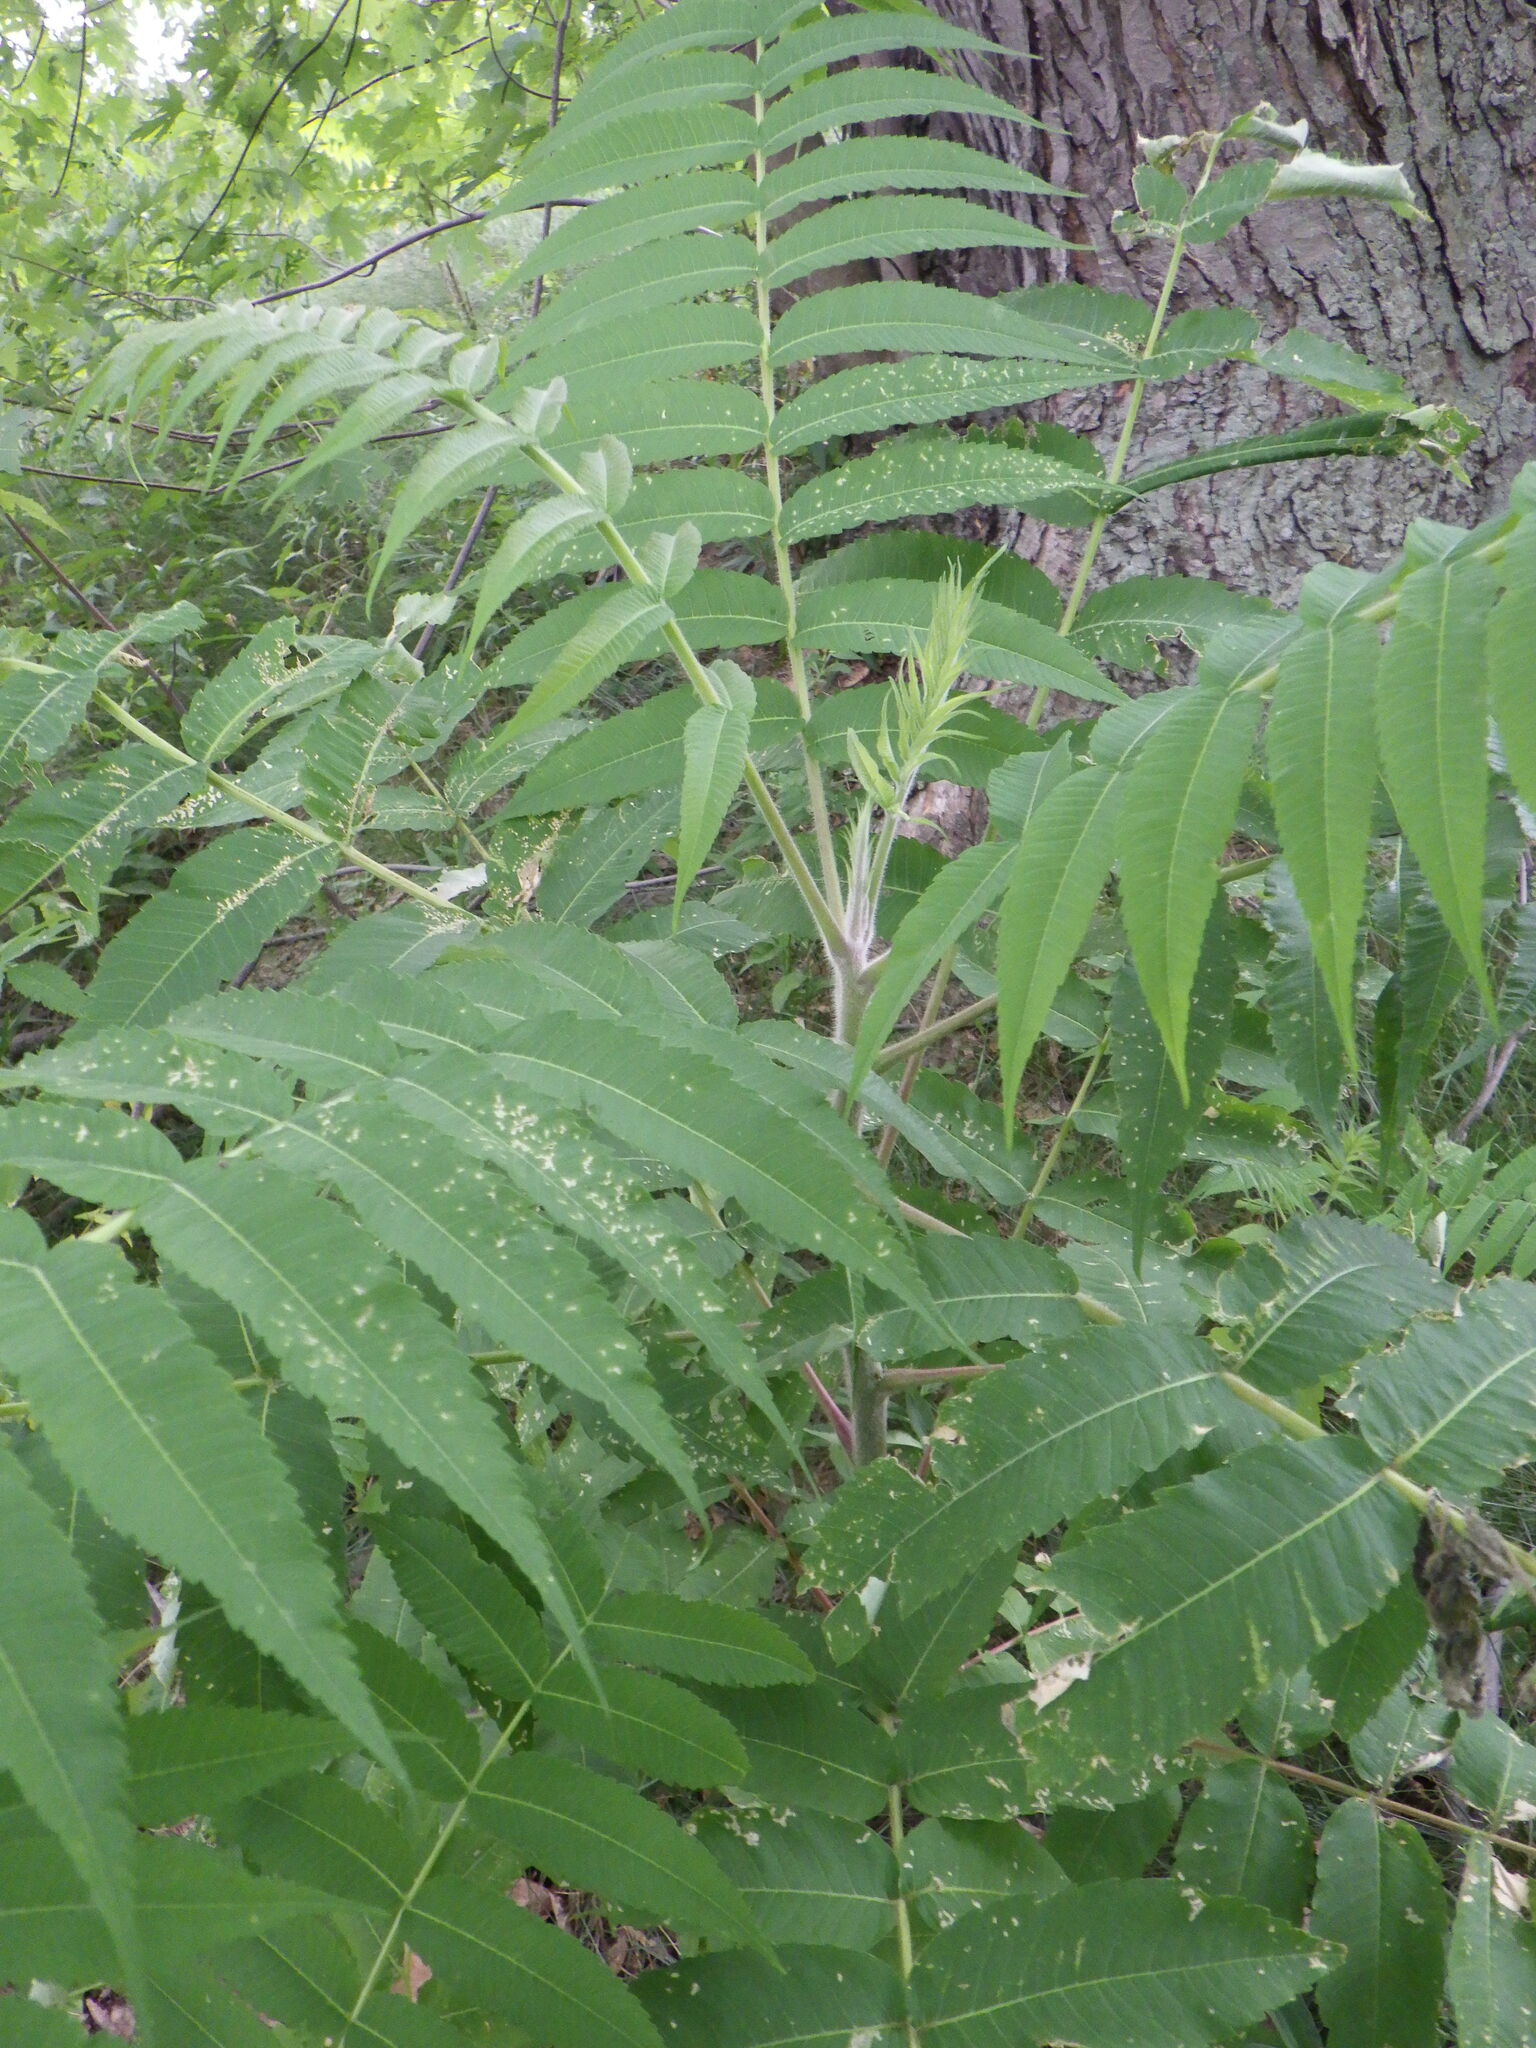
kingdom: Plantae
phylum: Tracheophyta
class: Magnoliopsida
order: Sapindales
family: Anacardiaceae
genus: Rhus
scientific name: Rhus typhina
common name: Staghorn sumac
